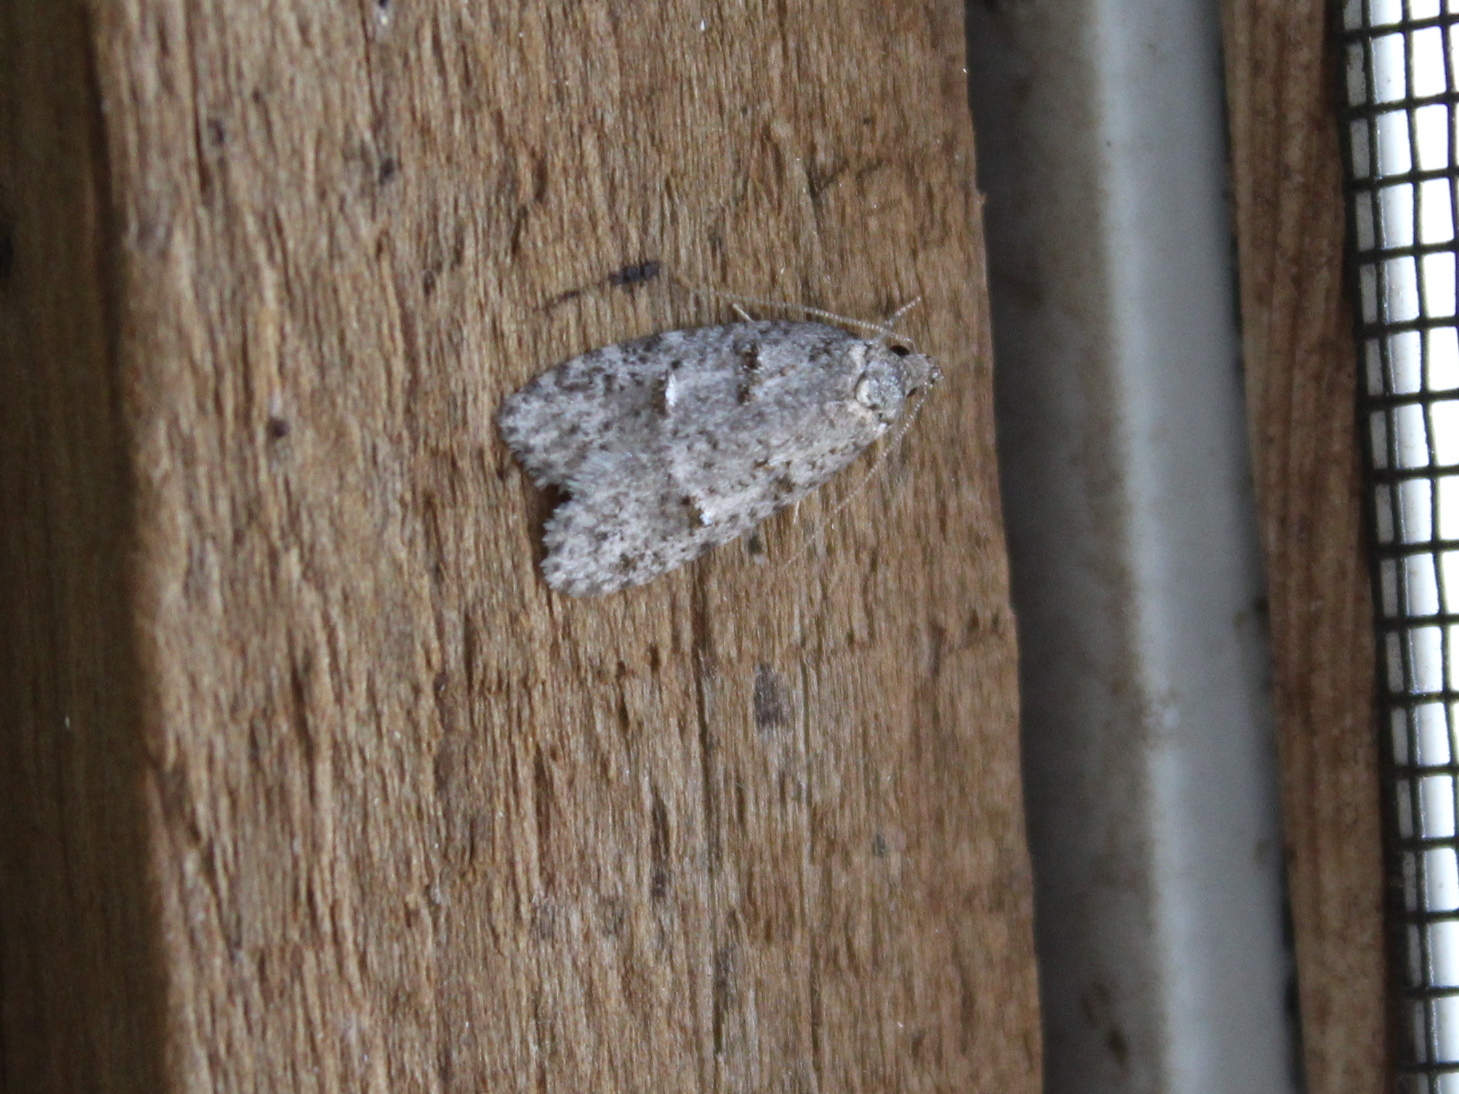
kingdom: Animalia
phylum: Arthropoda
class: Insecta
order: Lepidoptera
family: Depressariidae
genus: Bibarrambla
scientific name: Bibarrambla allenella
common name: Bog bibarrambla moth
